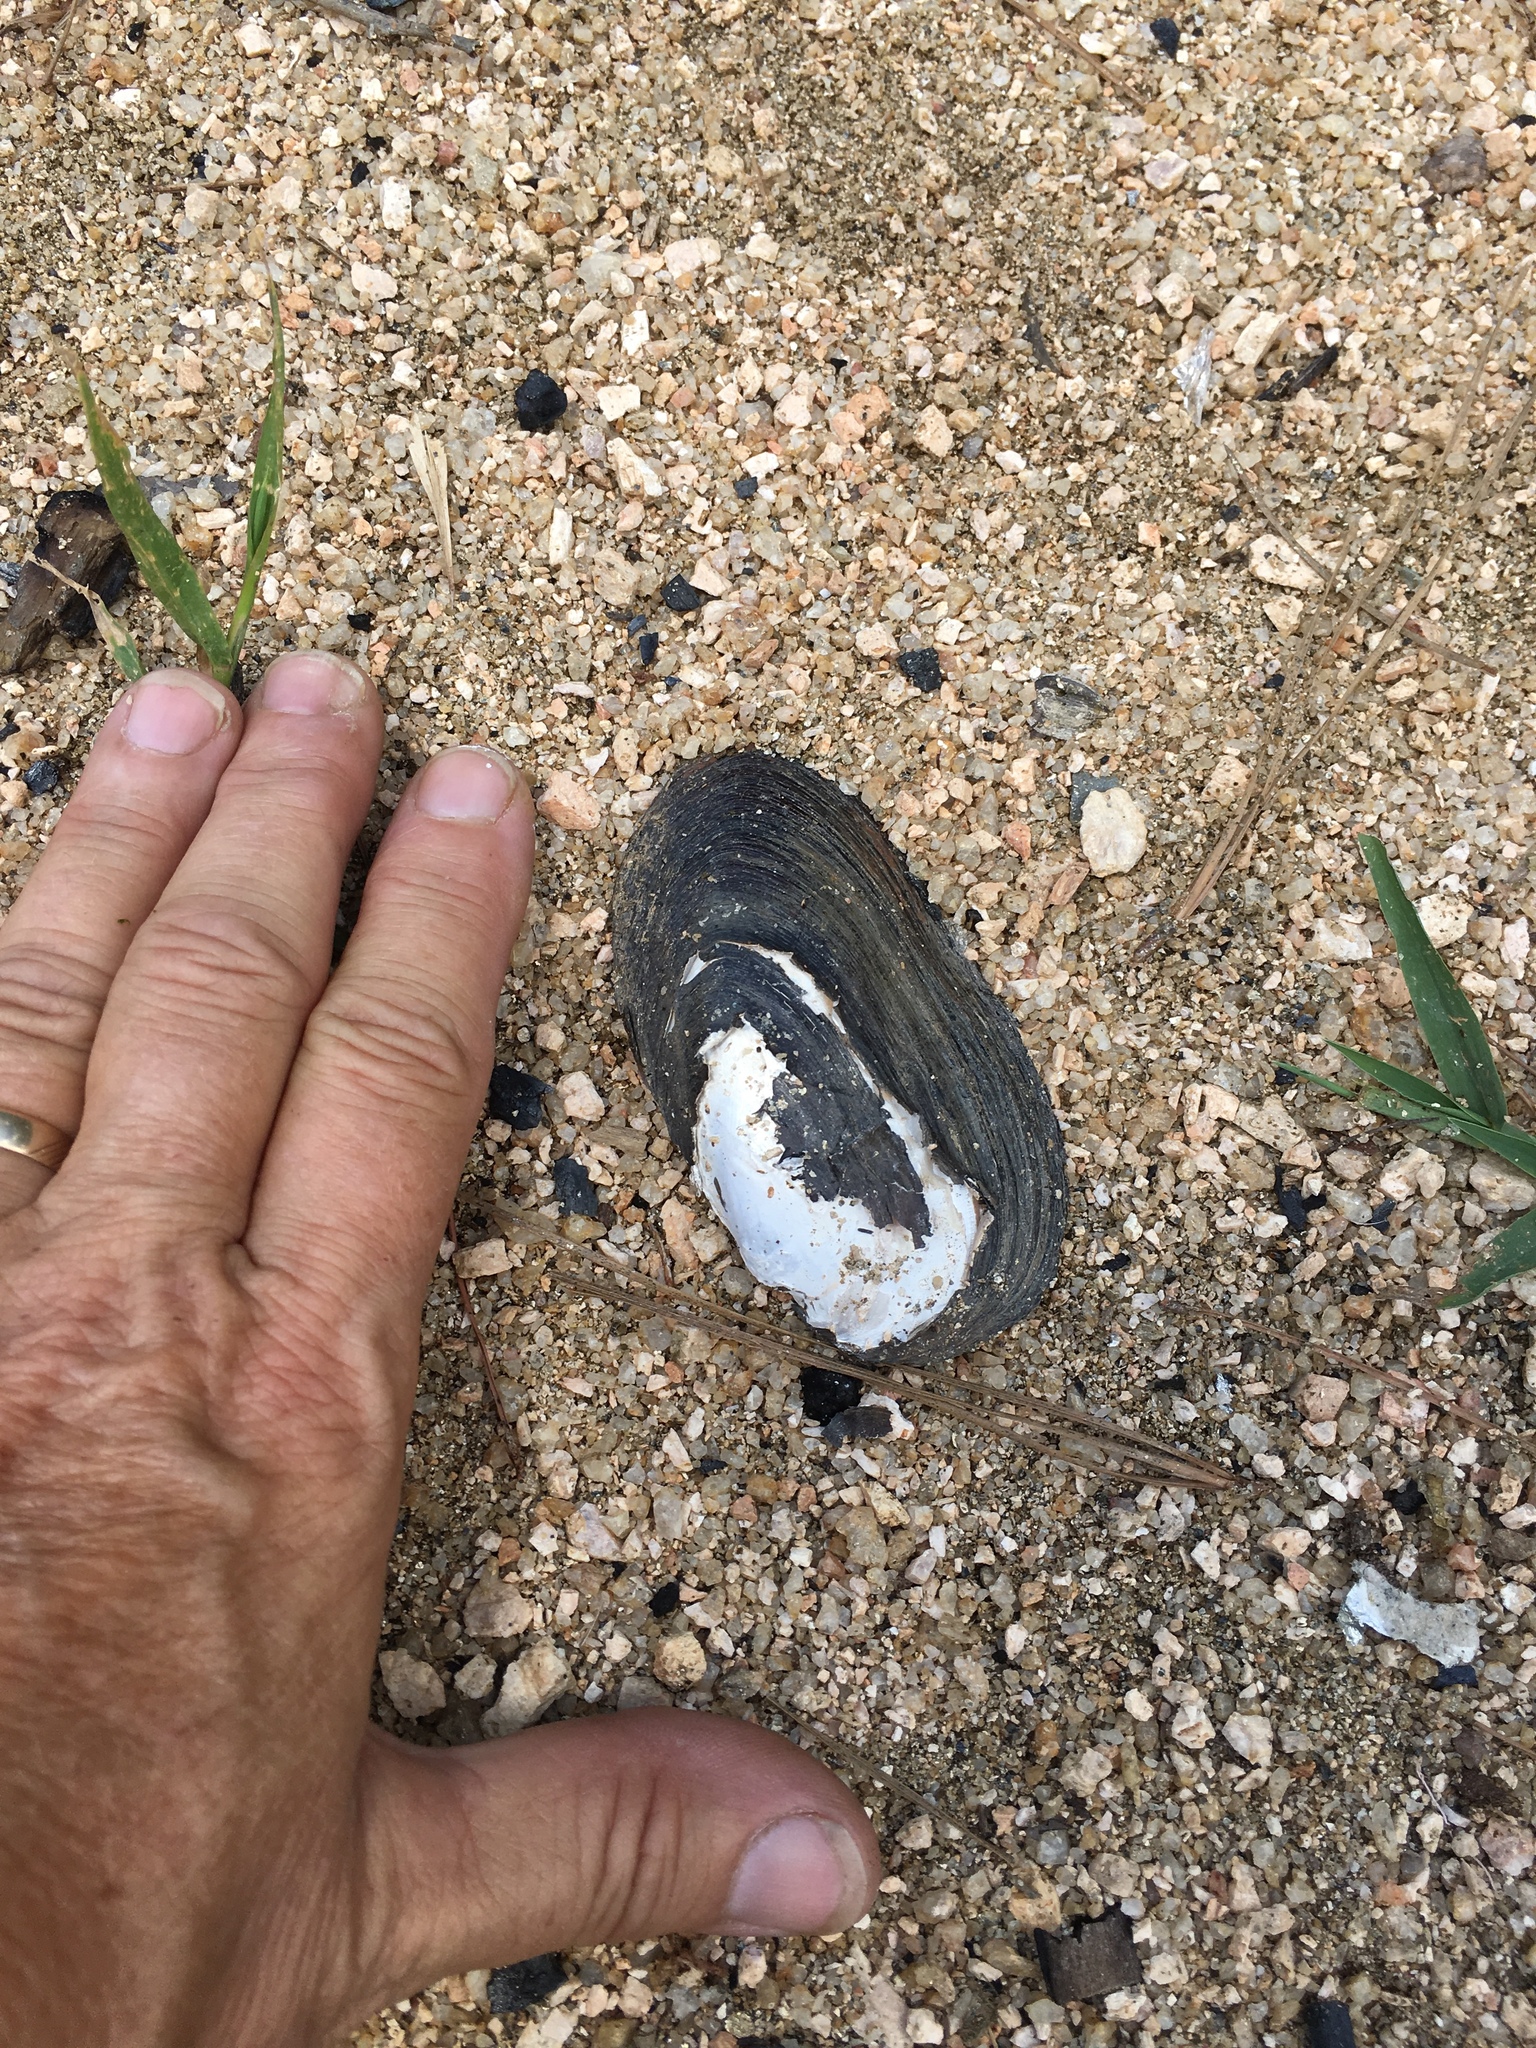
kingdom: Animalia
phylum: Mollusca
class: Bivalvia
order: Unionida
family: Unionidae
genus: Elliptio
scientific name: Elliptio complanata
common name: Eastern elliptio
